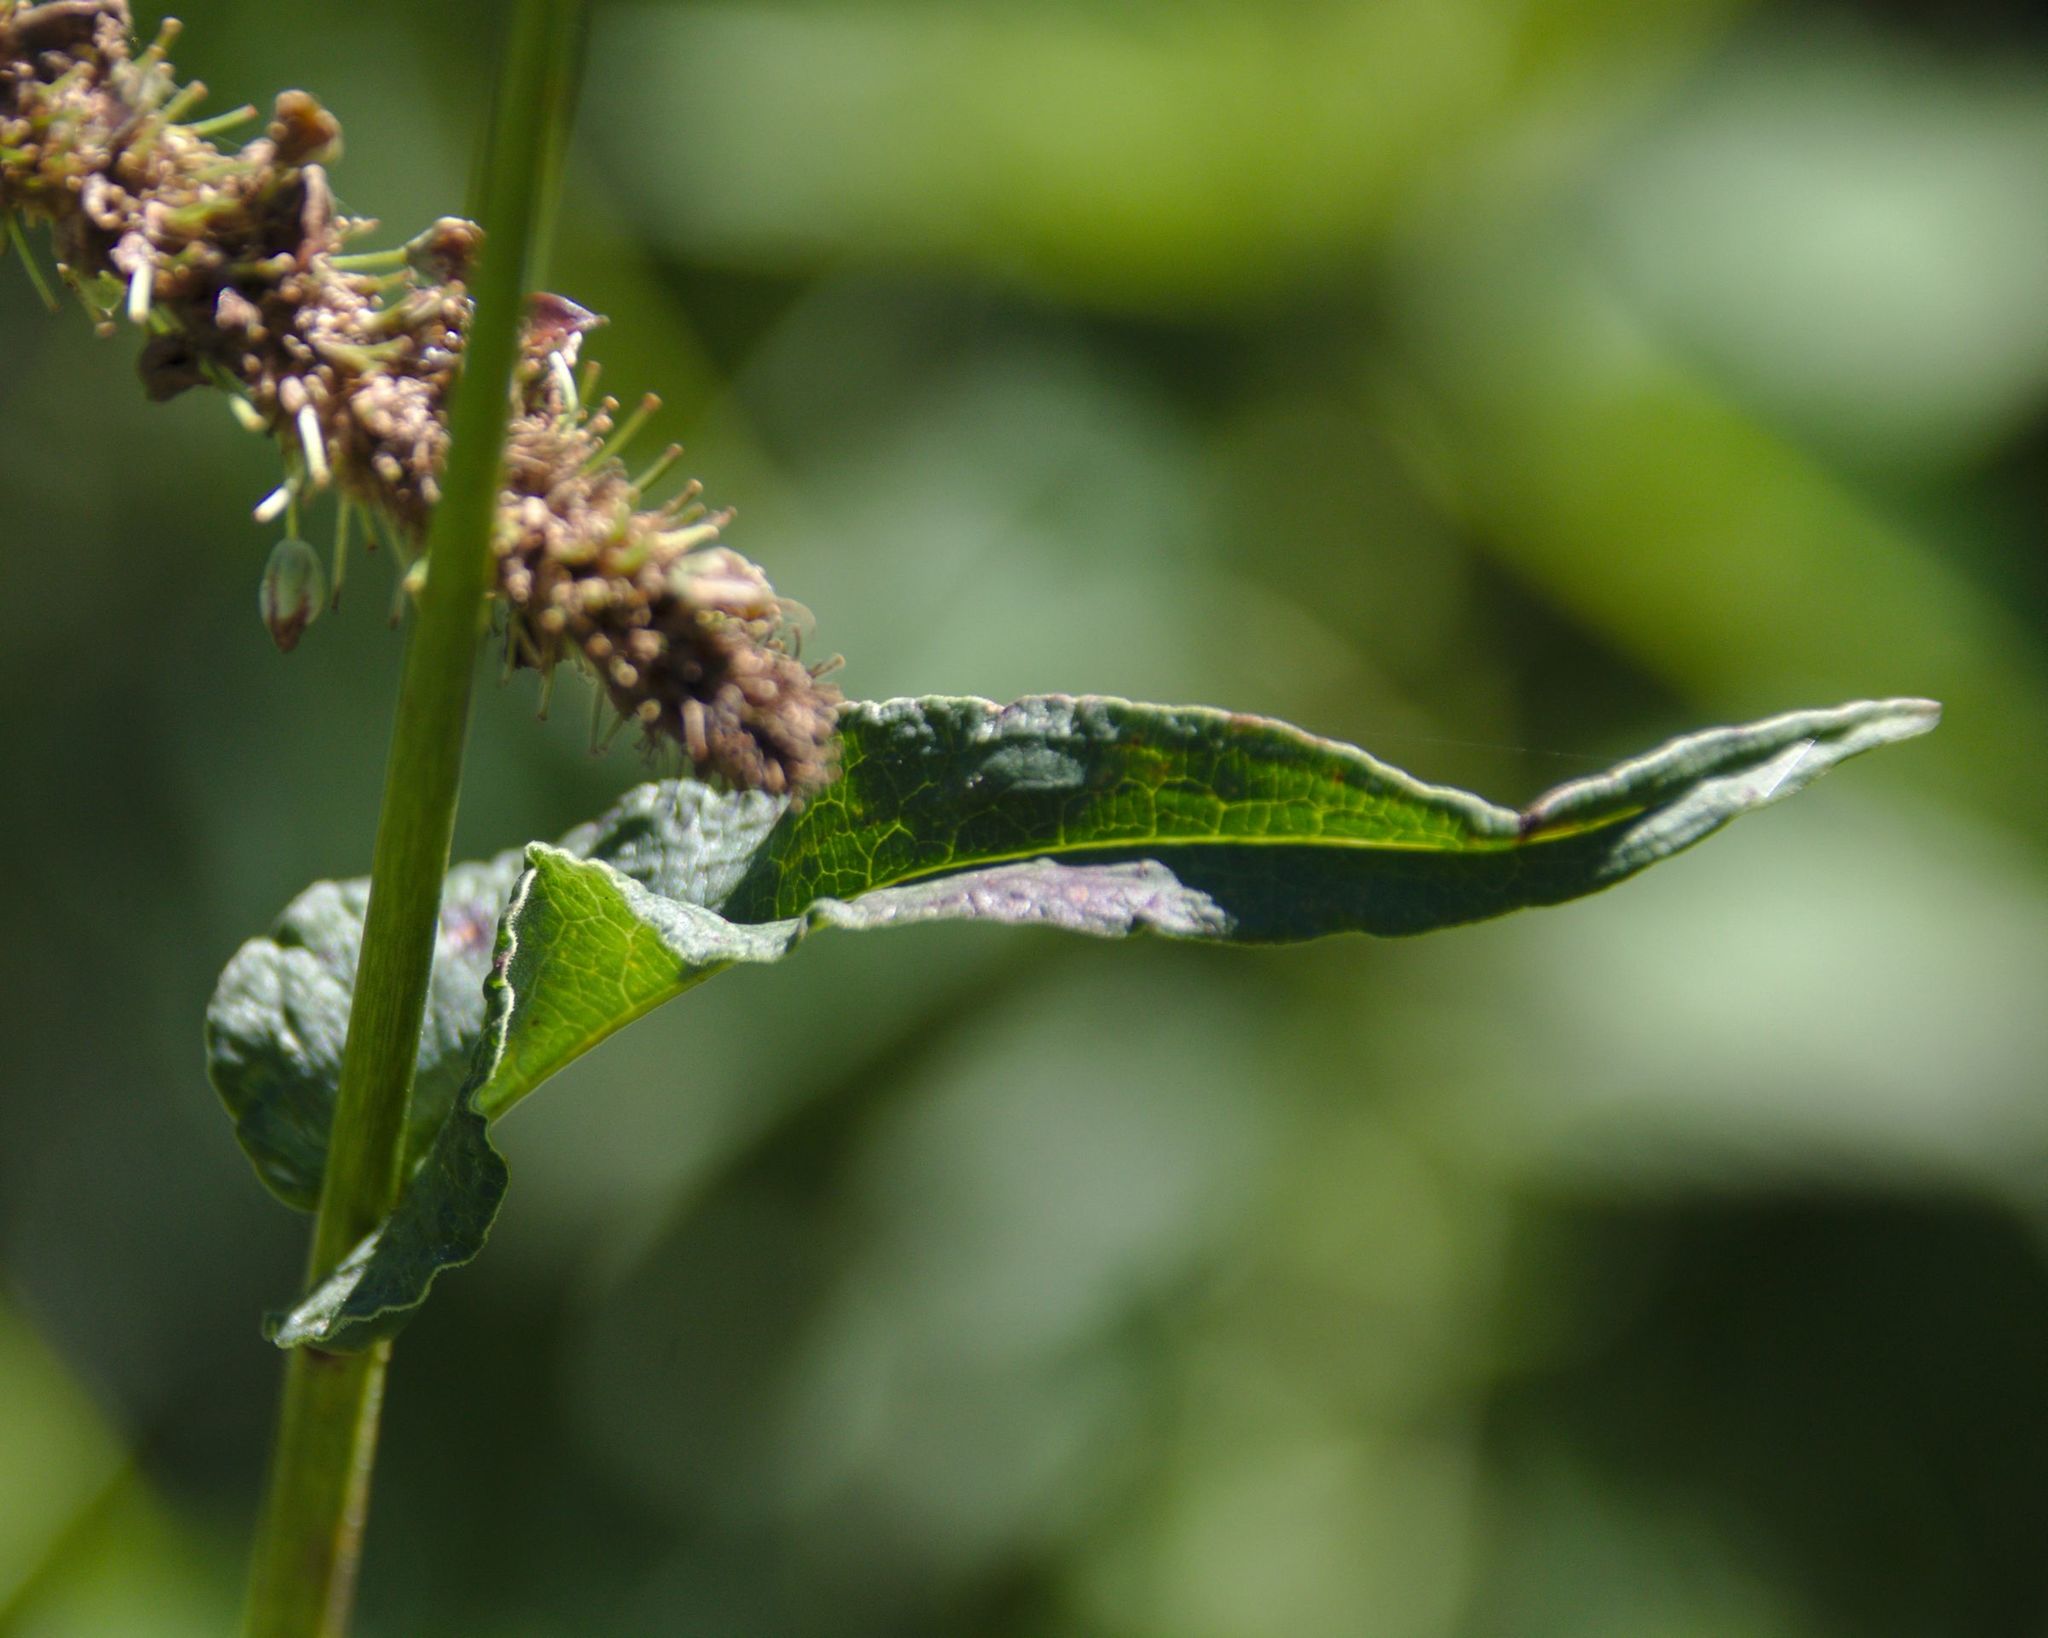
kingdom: Plantae
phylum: Tracheophyta
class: Magnoliopsida
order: Caryophyllales
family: Polygonaceae
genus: Bistorta
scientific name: Bistorta officinalis
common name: Common bistort
